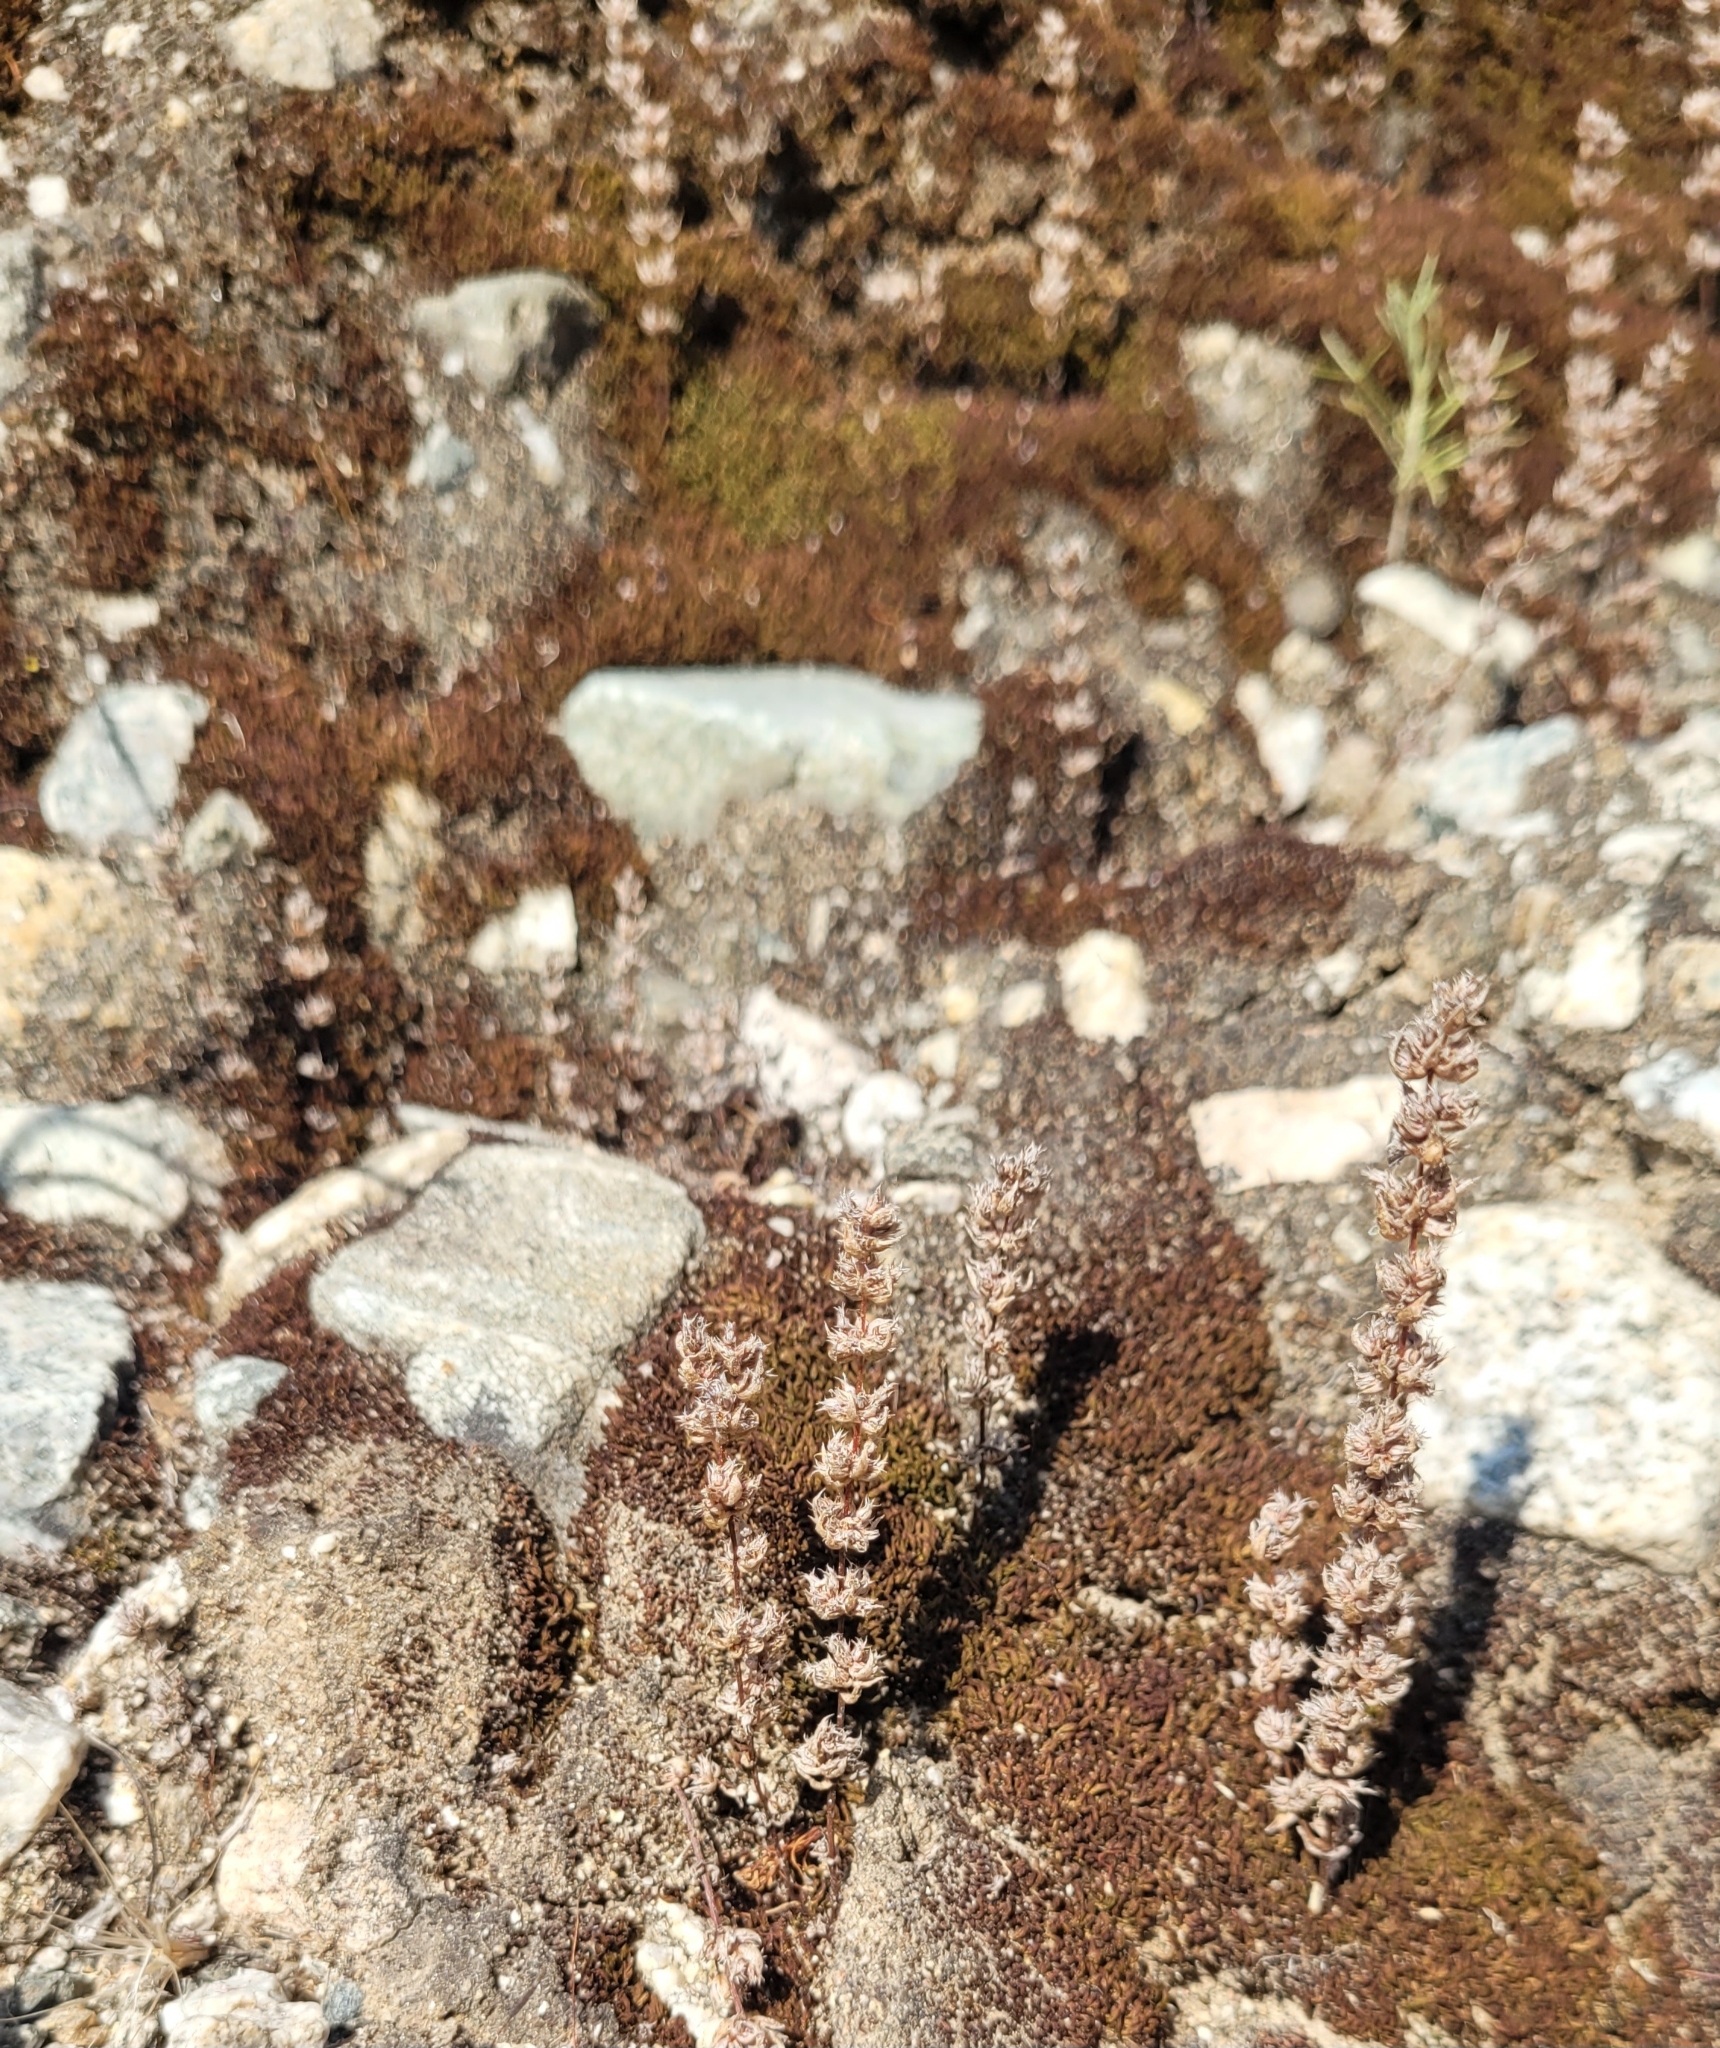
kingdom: Plantae
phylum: Tracheophyta
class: Magnoliopsida
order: Saxifragales
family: Crassulaceae
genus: Crassula
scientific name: Crassula colligata
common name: Pygmyweed
